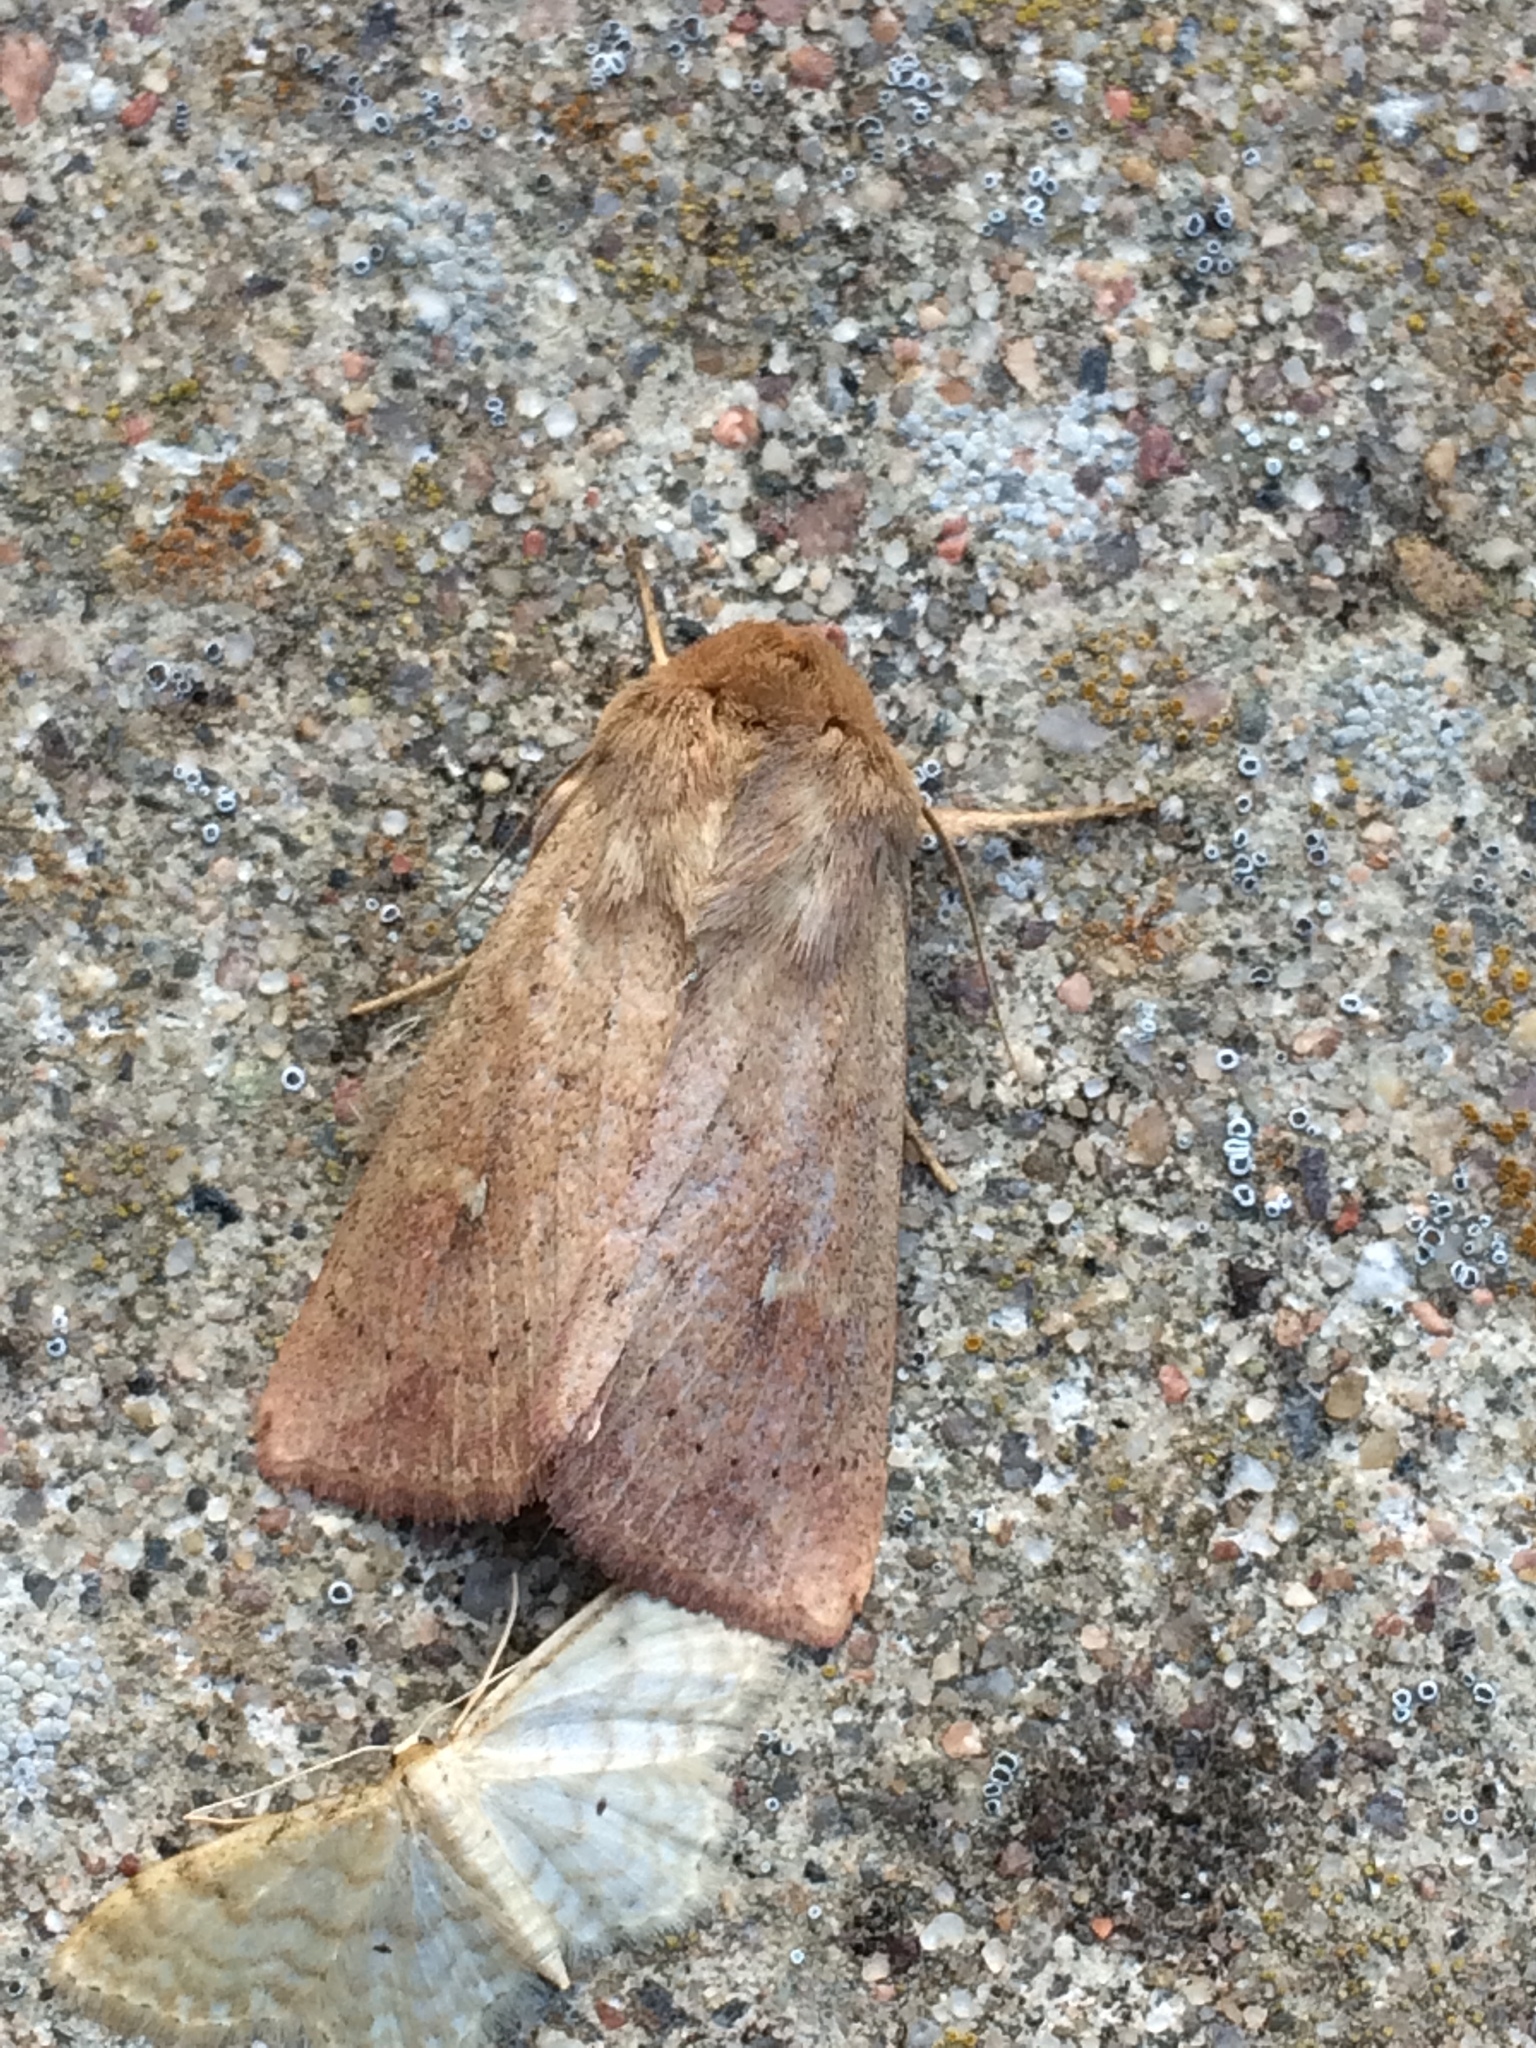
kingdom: Animalia
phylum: Arthropoda
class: Insecta
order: Lepidoptera
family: Noctuidae
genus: Mythimna
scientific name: Mythimna ferrago
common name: Clay
